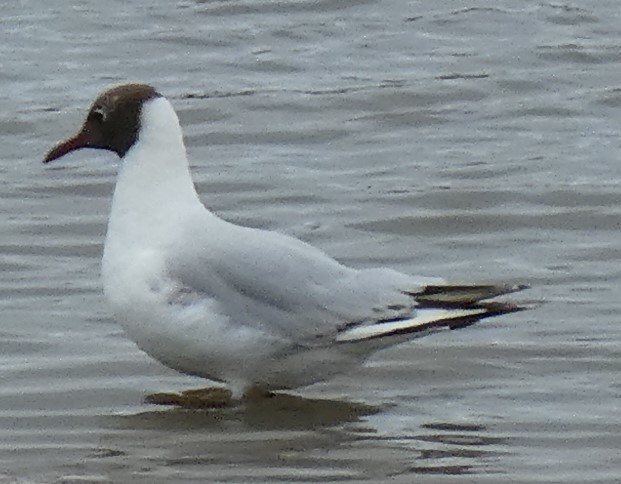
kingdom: Animalia
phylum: Chordata
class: Aves
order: Charadriiformes
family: Laridae
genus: Chroicocephalus
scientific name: Chroicocephalus ridibundus
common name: Black-headed gull
